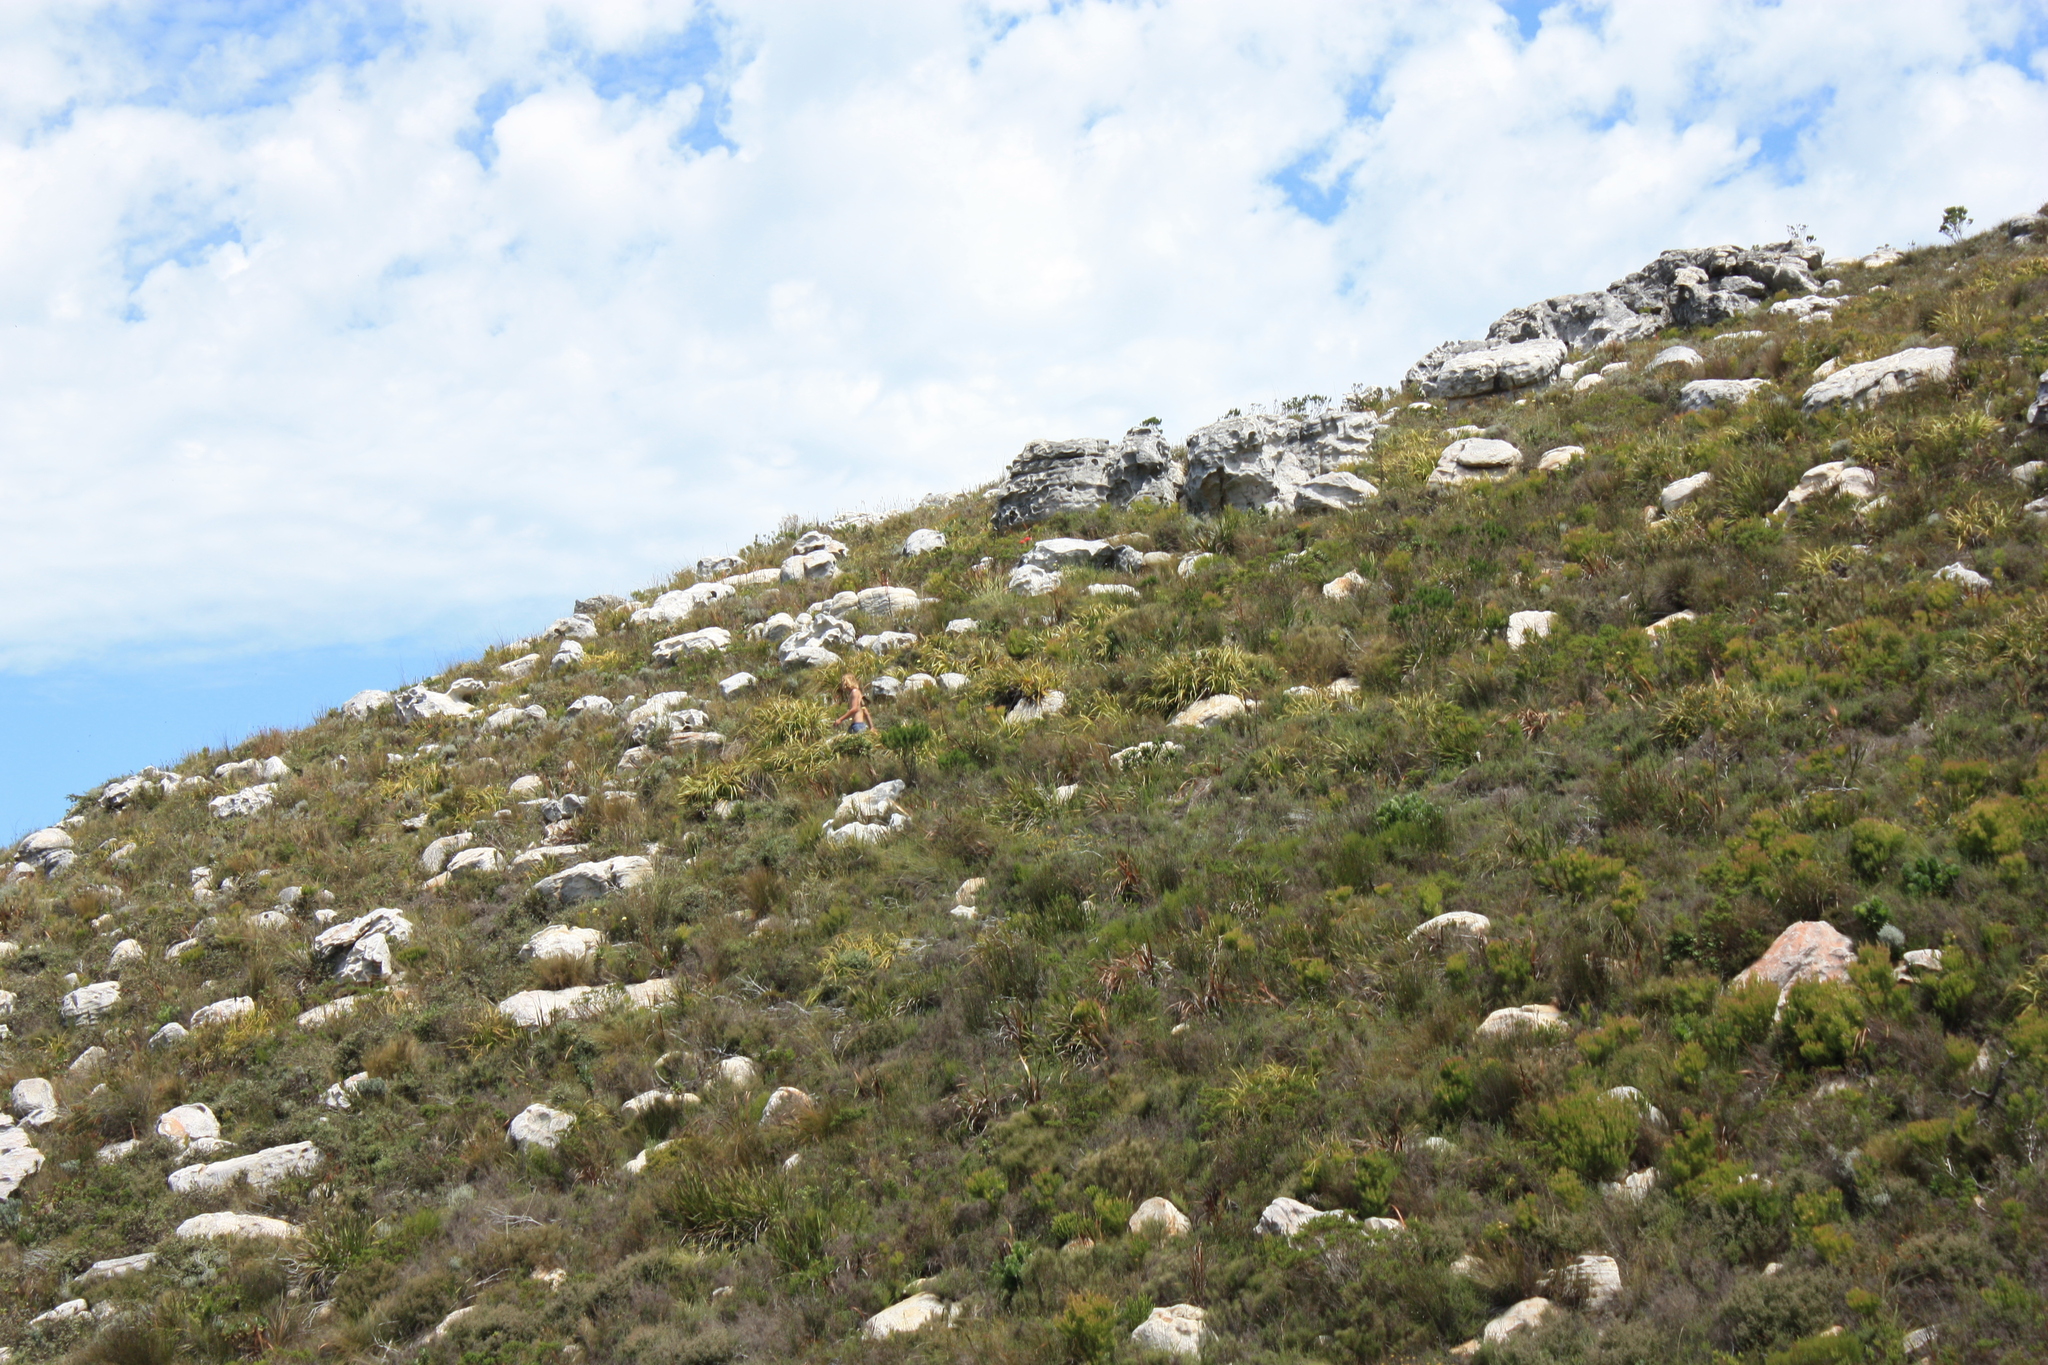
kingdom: Plantae
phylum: Tracheophyta
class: Liliopsida
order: Poales
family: Cyperaceae
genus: Tetraria
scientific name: Tetraria thermalis
